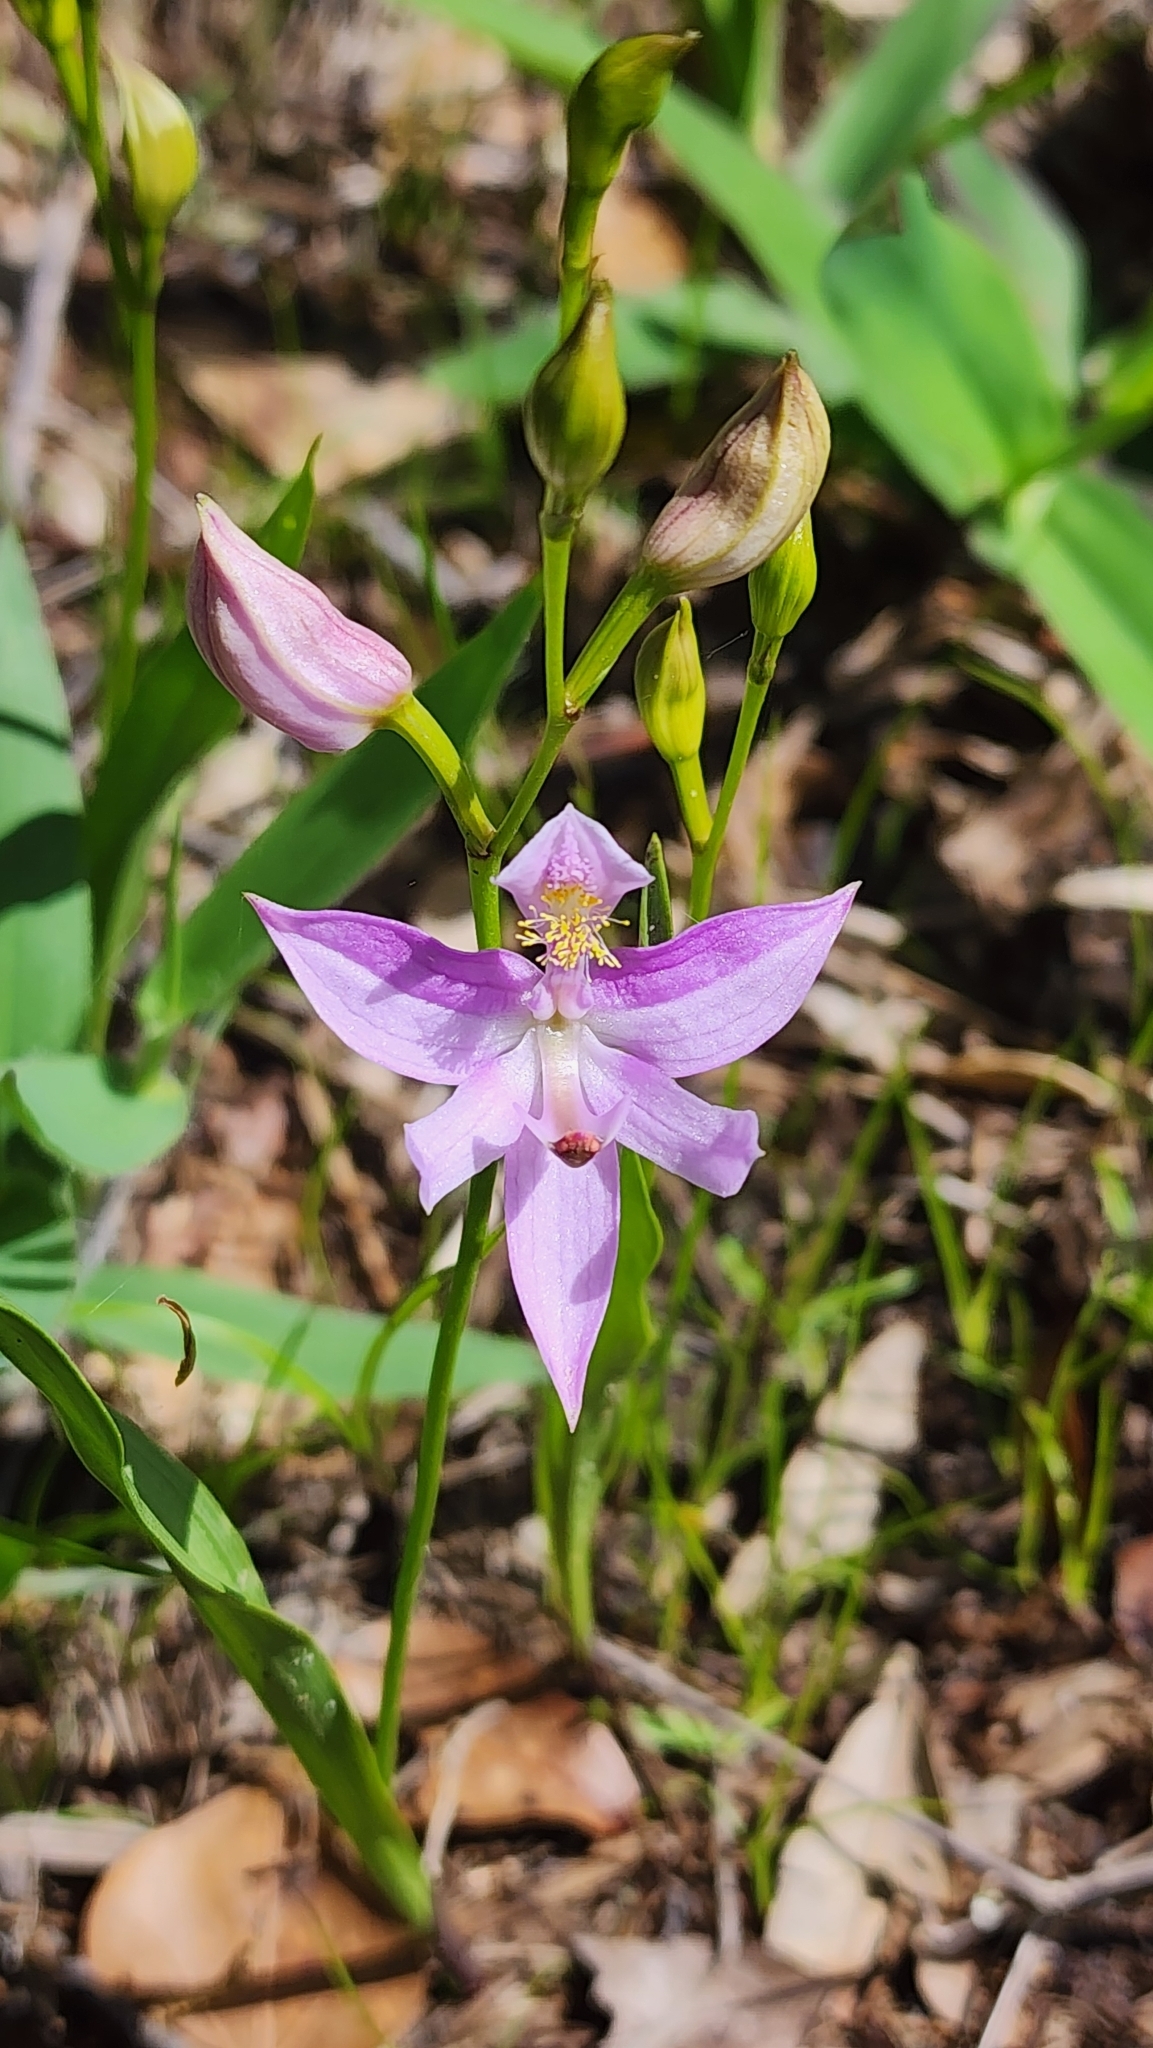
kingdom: Plantae
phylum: Tracheophyta
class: Liliopsida
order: Asparagales
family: Orchidaceae
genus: Calopogon
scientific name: Calopogon oklahomensis
